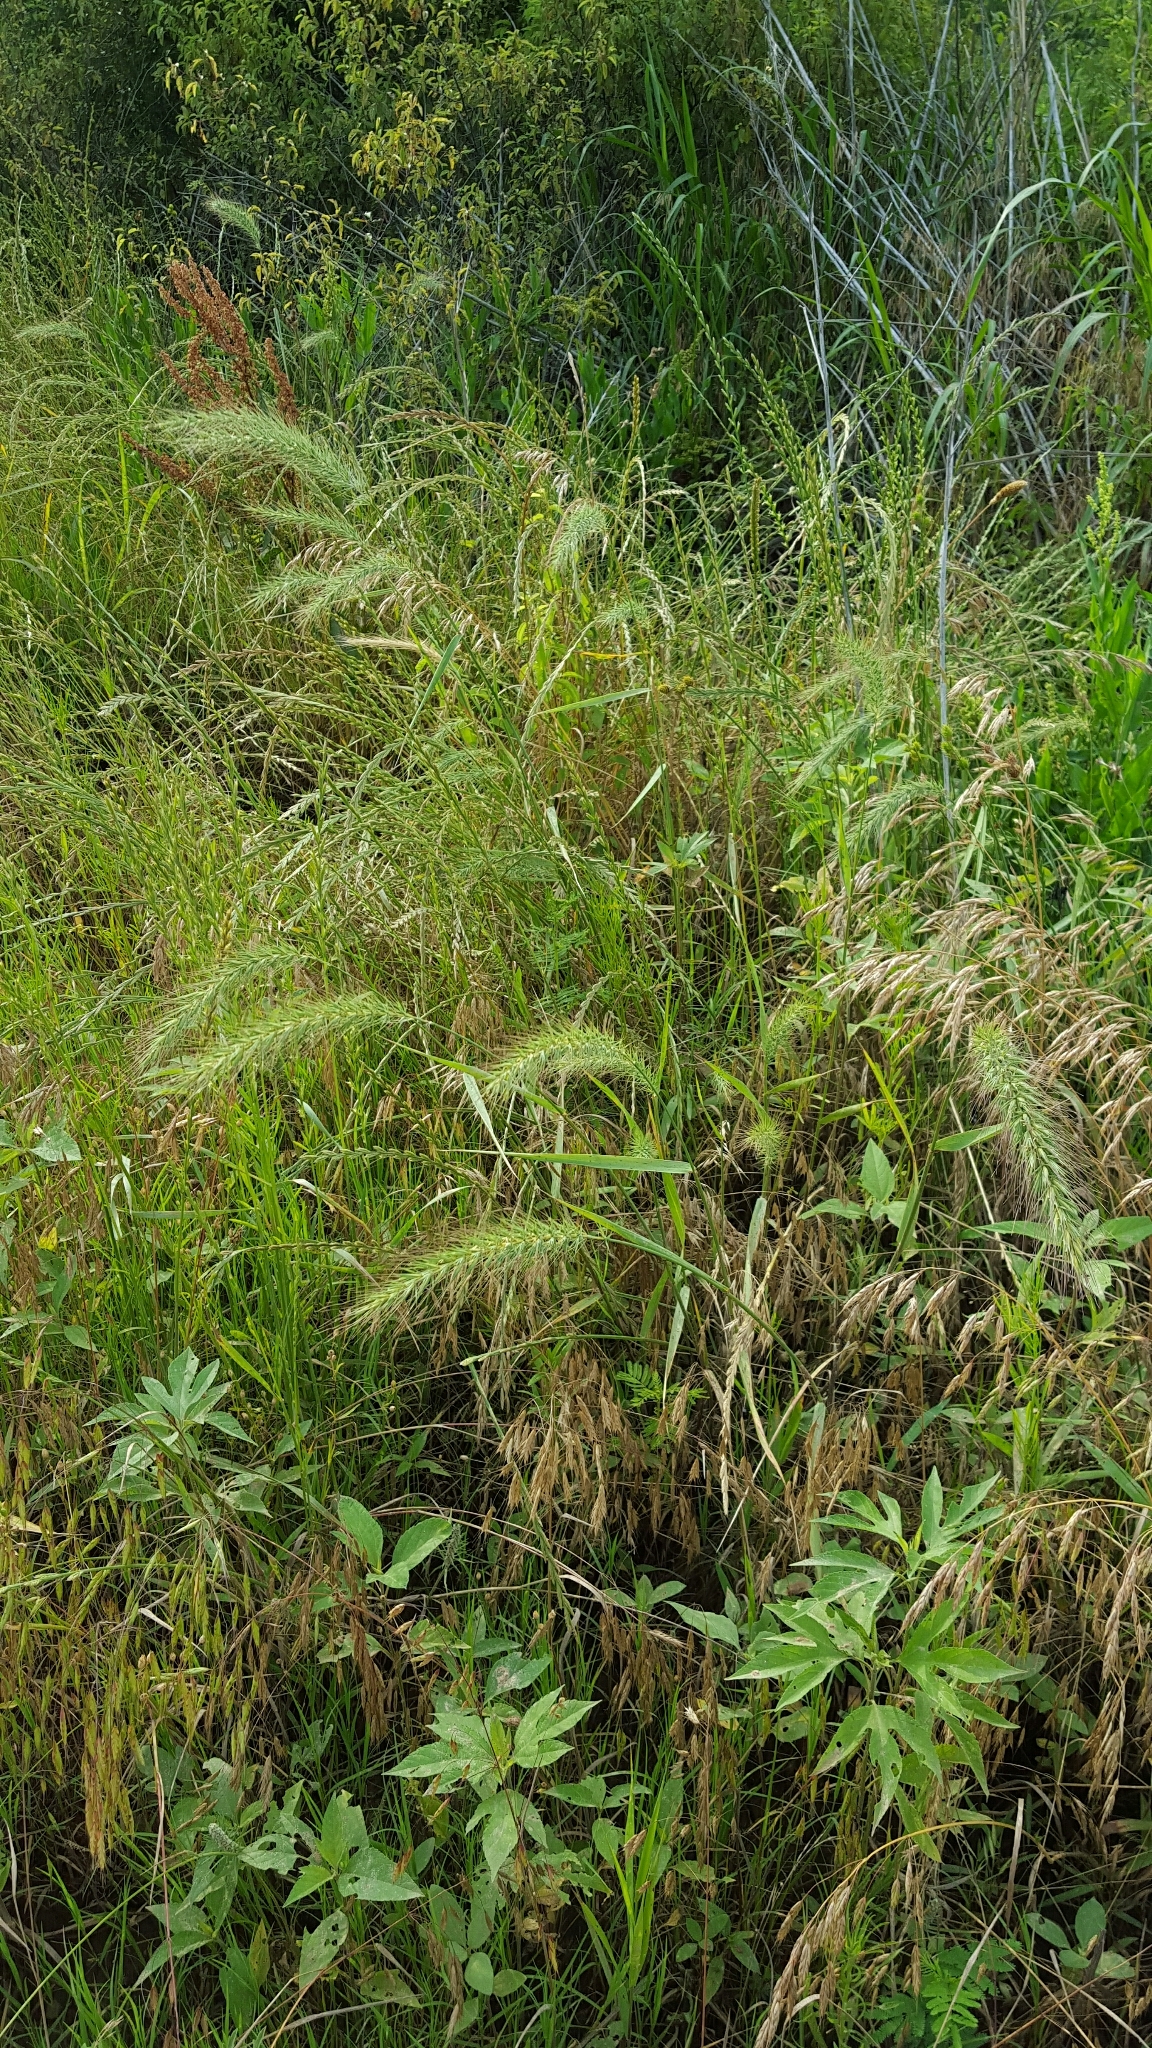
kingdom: Plantae
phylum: Tracheophyta
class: Liliopsida
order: Poales
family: Poaceae
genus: Elymus
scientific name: Elymus canadensis
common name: Canada wild rye
